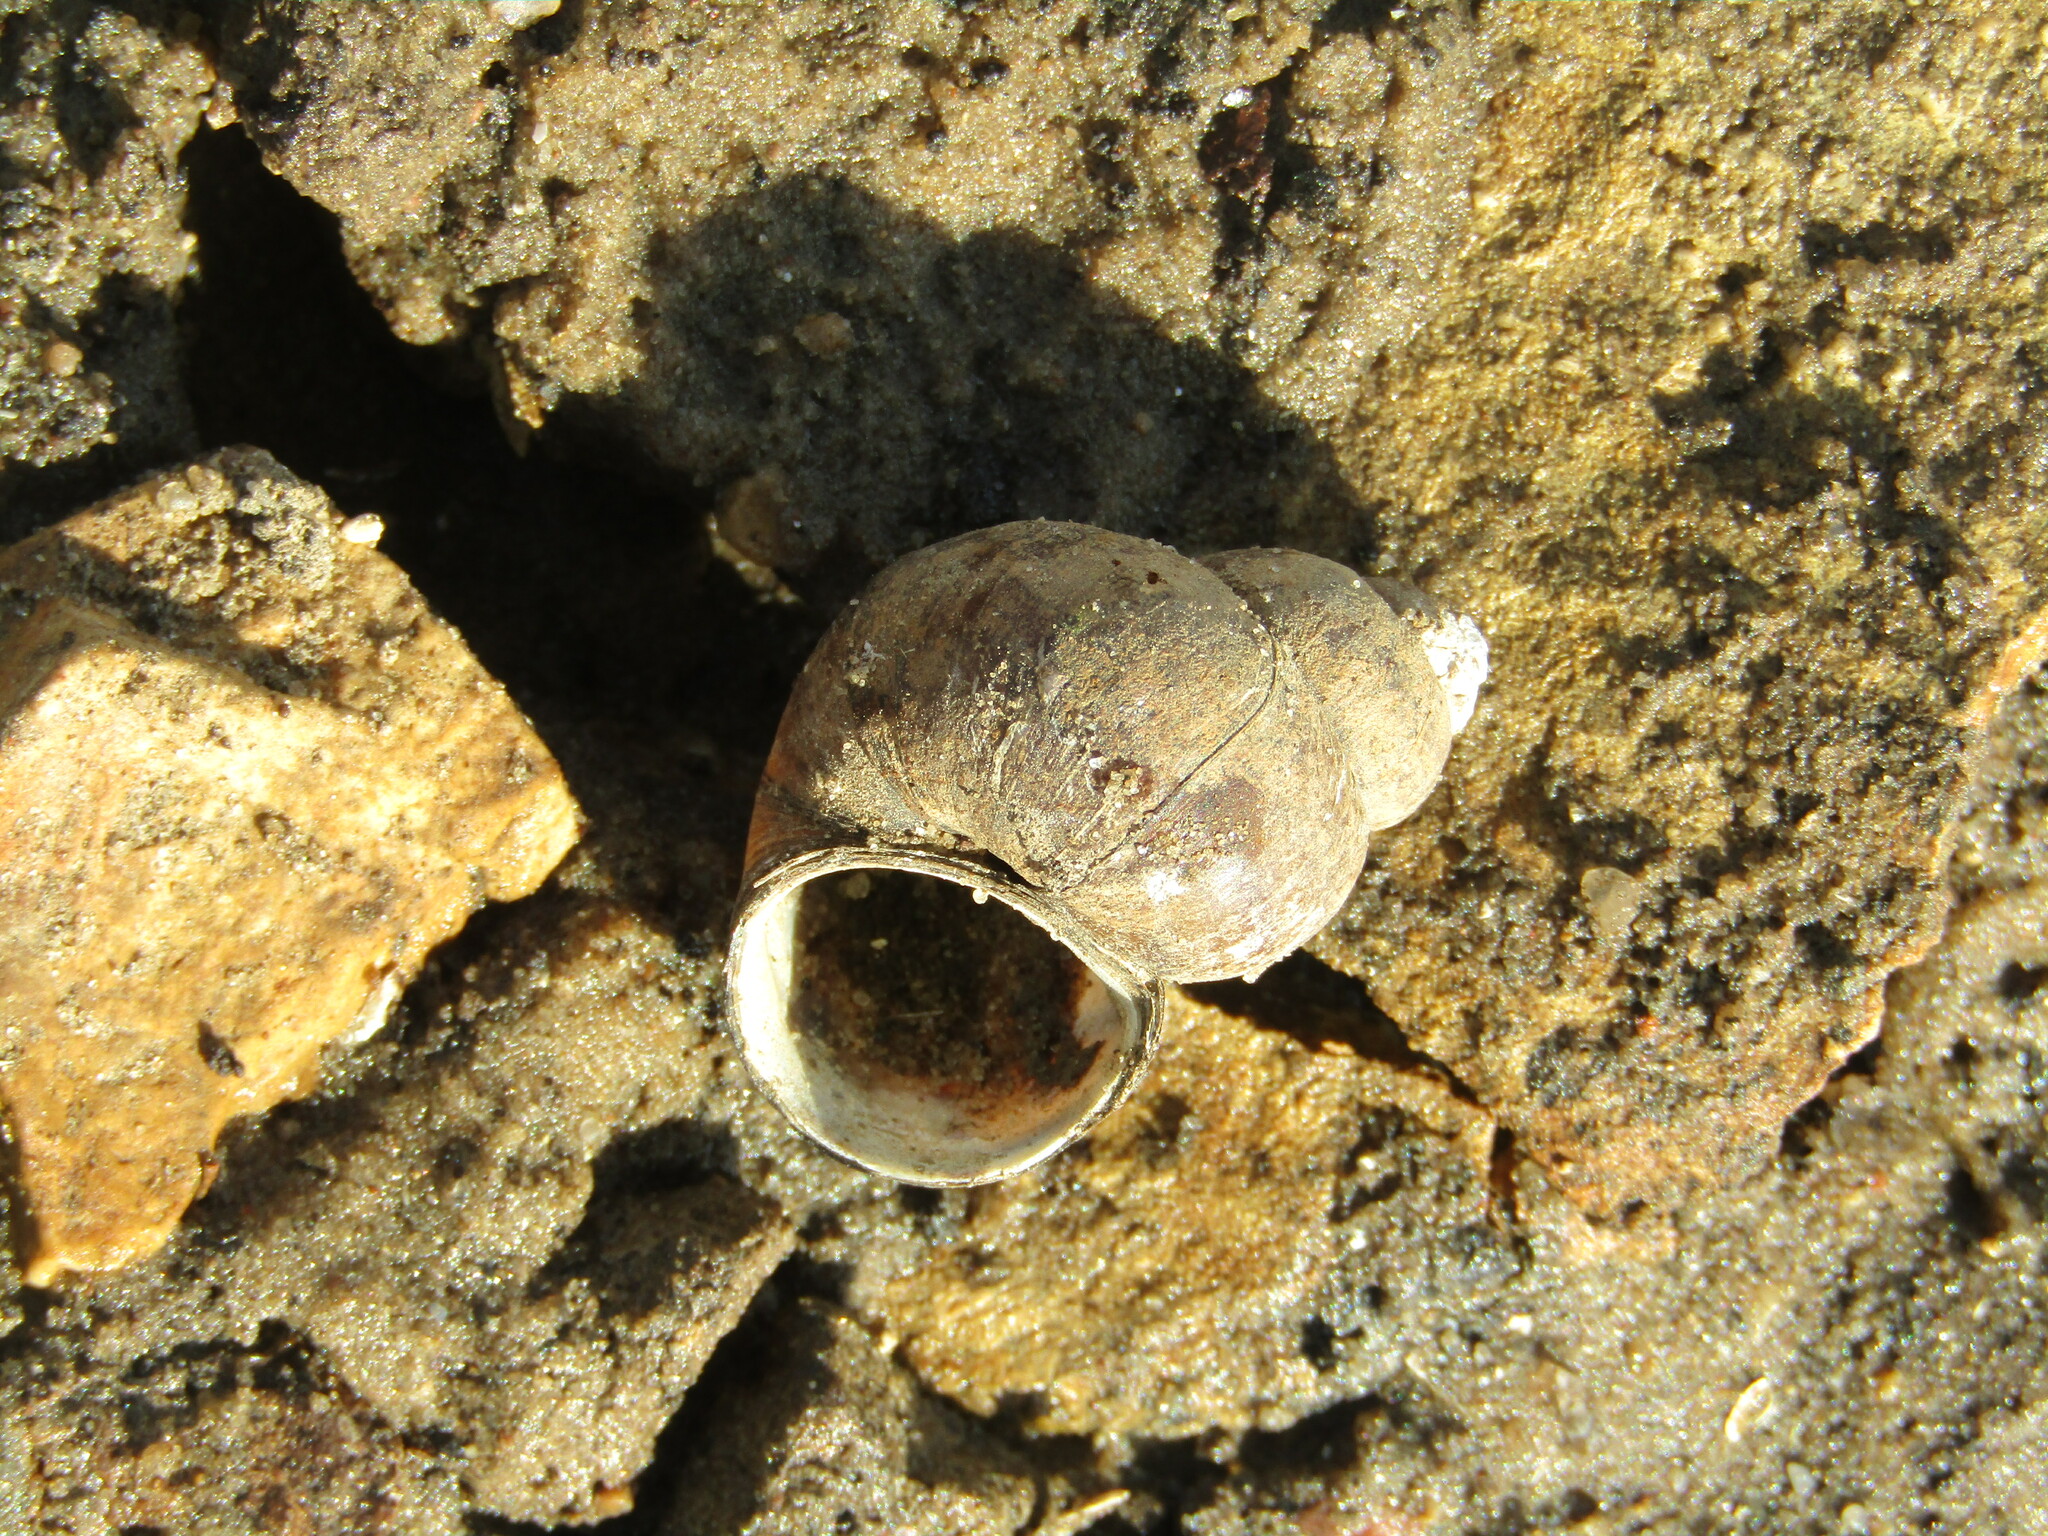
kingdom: Animalia
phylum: Mollusca
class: Gastropoda
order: Architaenioglossa
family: Viviparidae
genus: Viviparus
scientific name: Viviparus viviparus
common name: River snail
